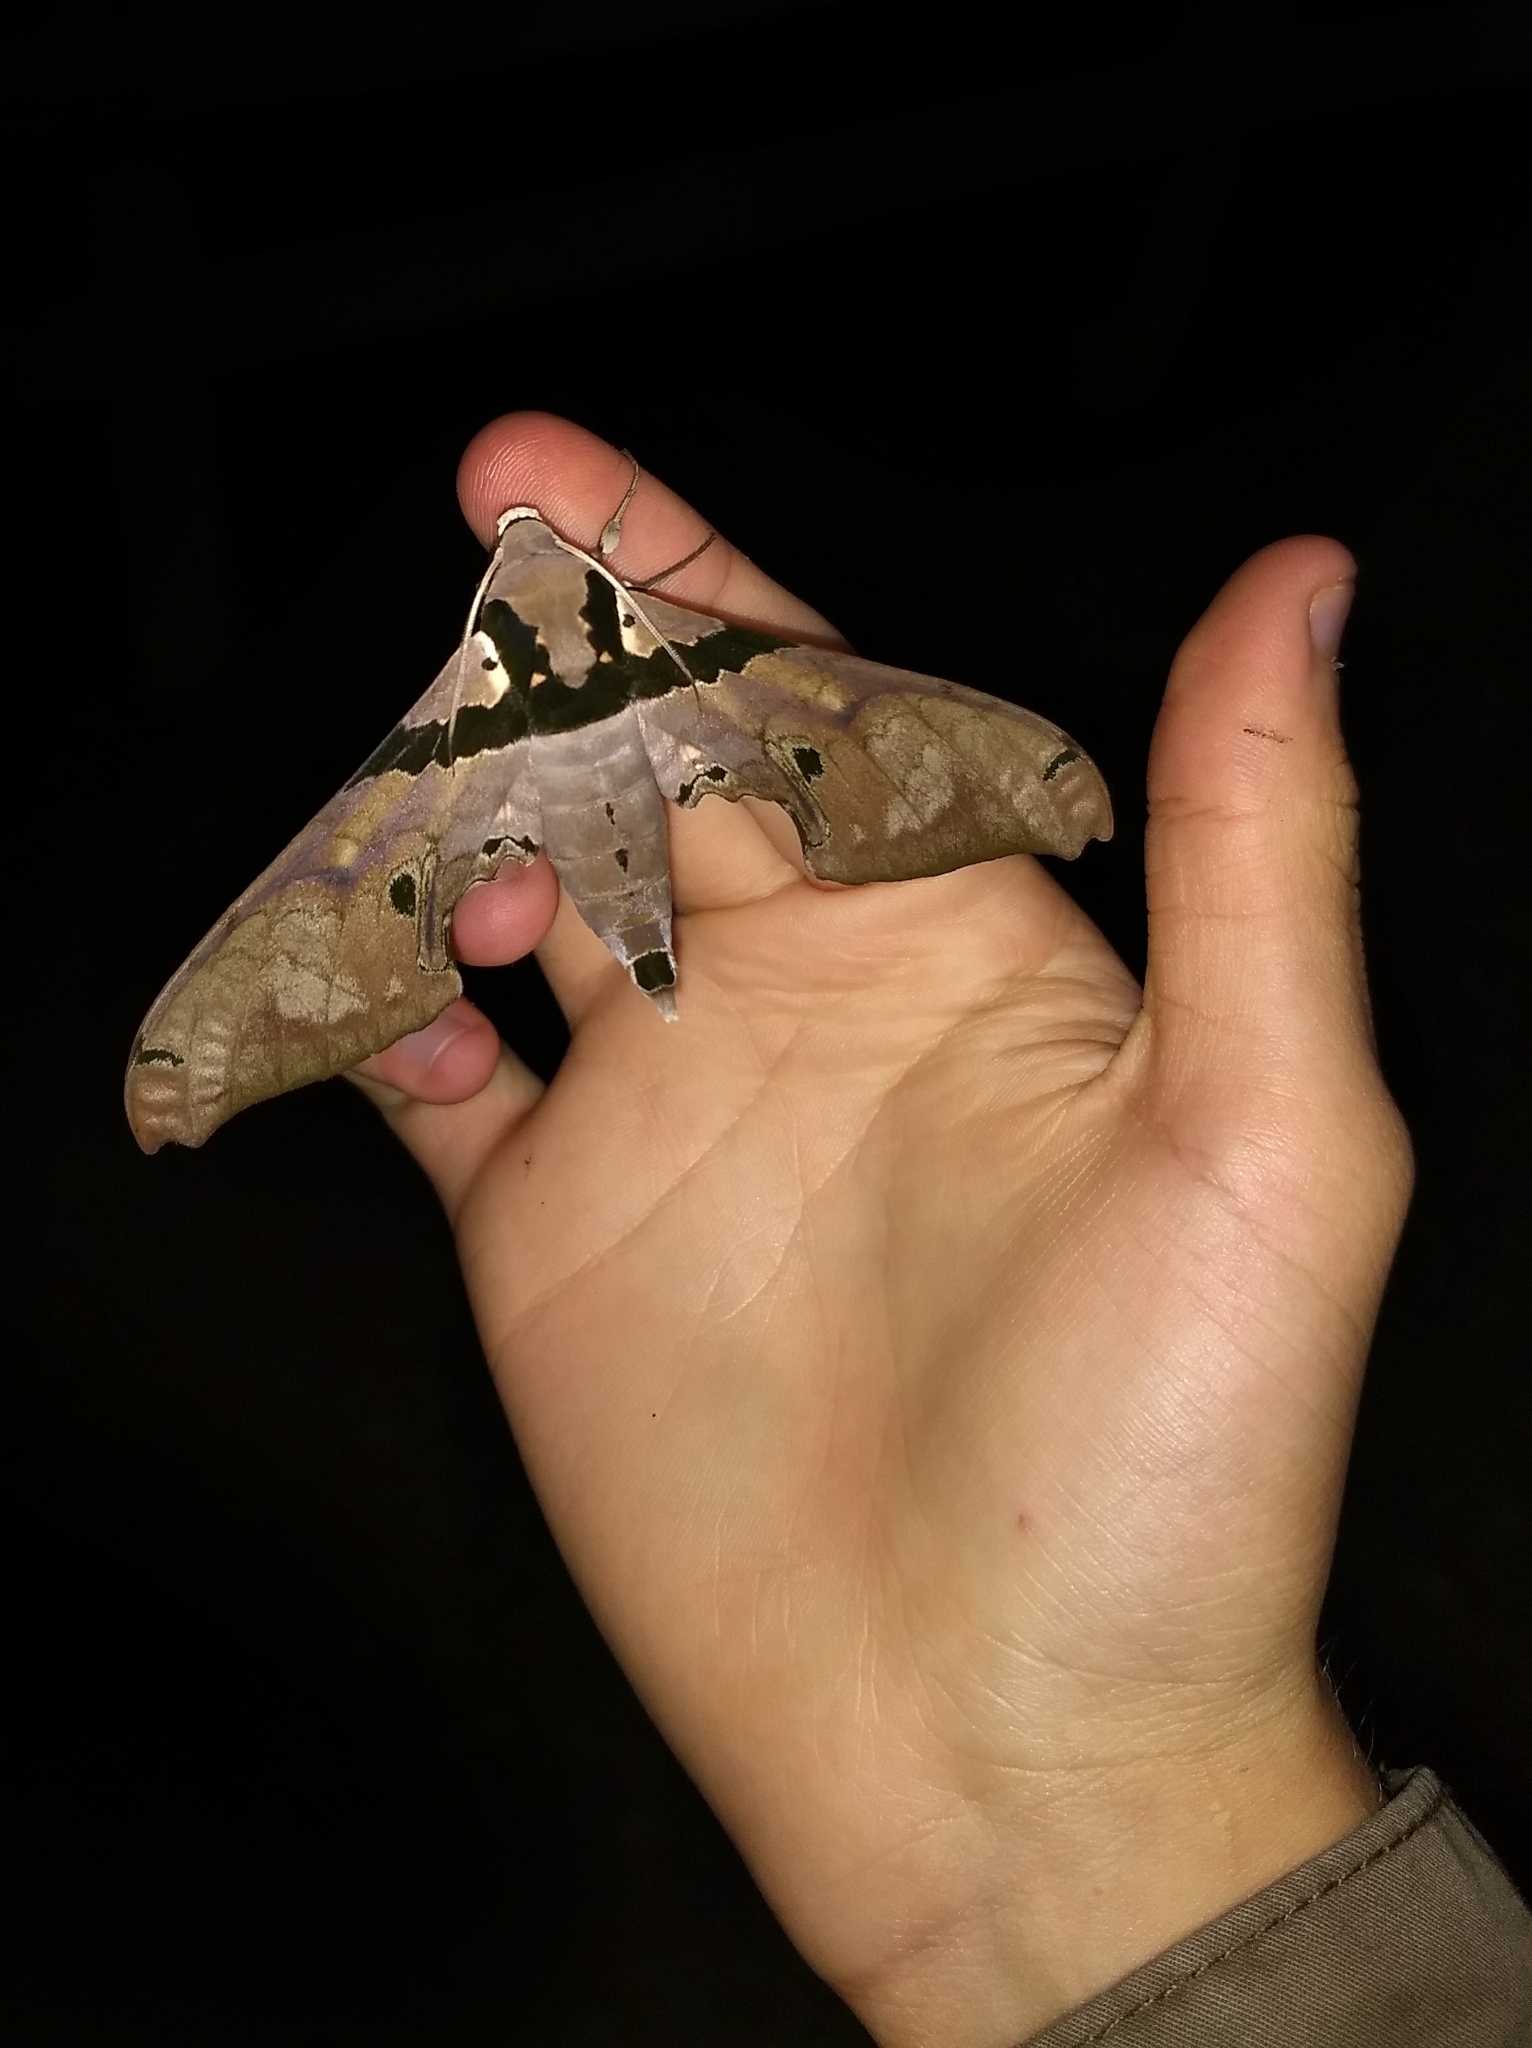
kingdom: Animalia
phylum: Arthropoda
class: Insecta
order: Lepidoptera
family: Sphingidae
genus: Adhemarius
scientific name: Adhemarius gannascus
